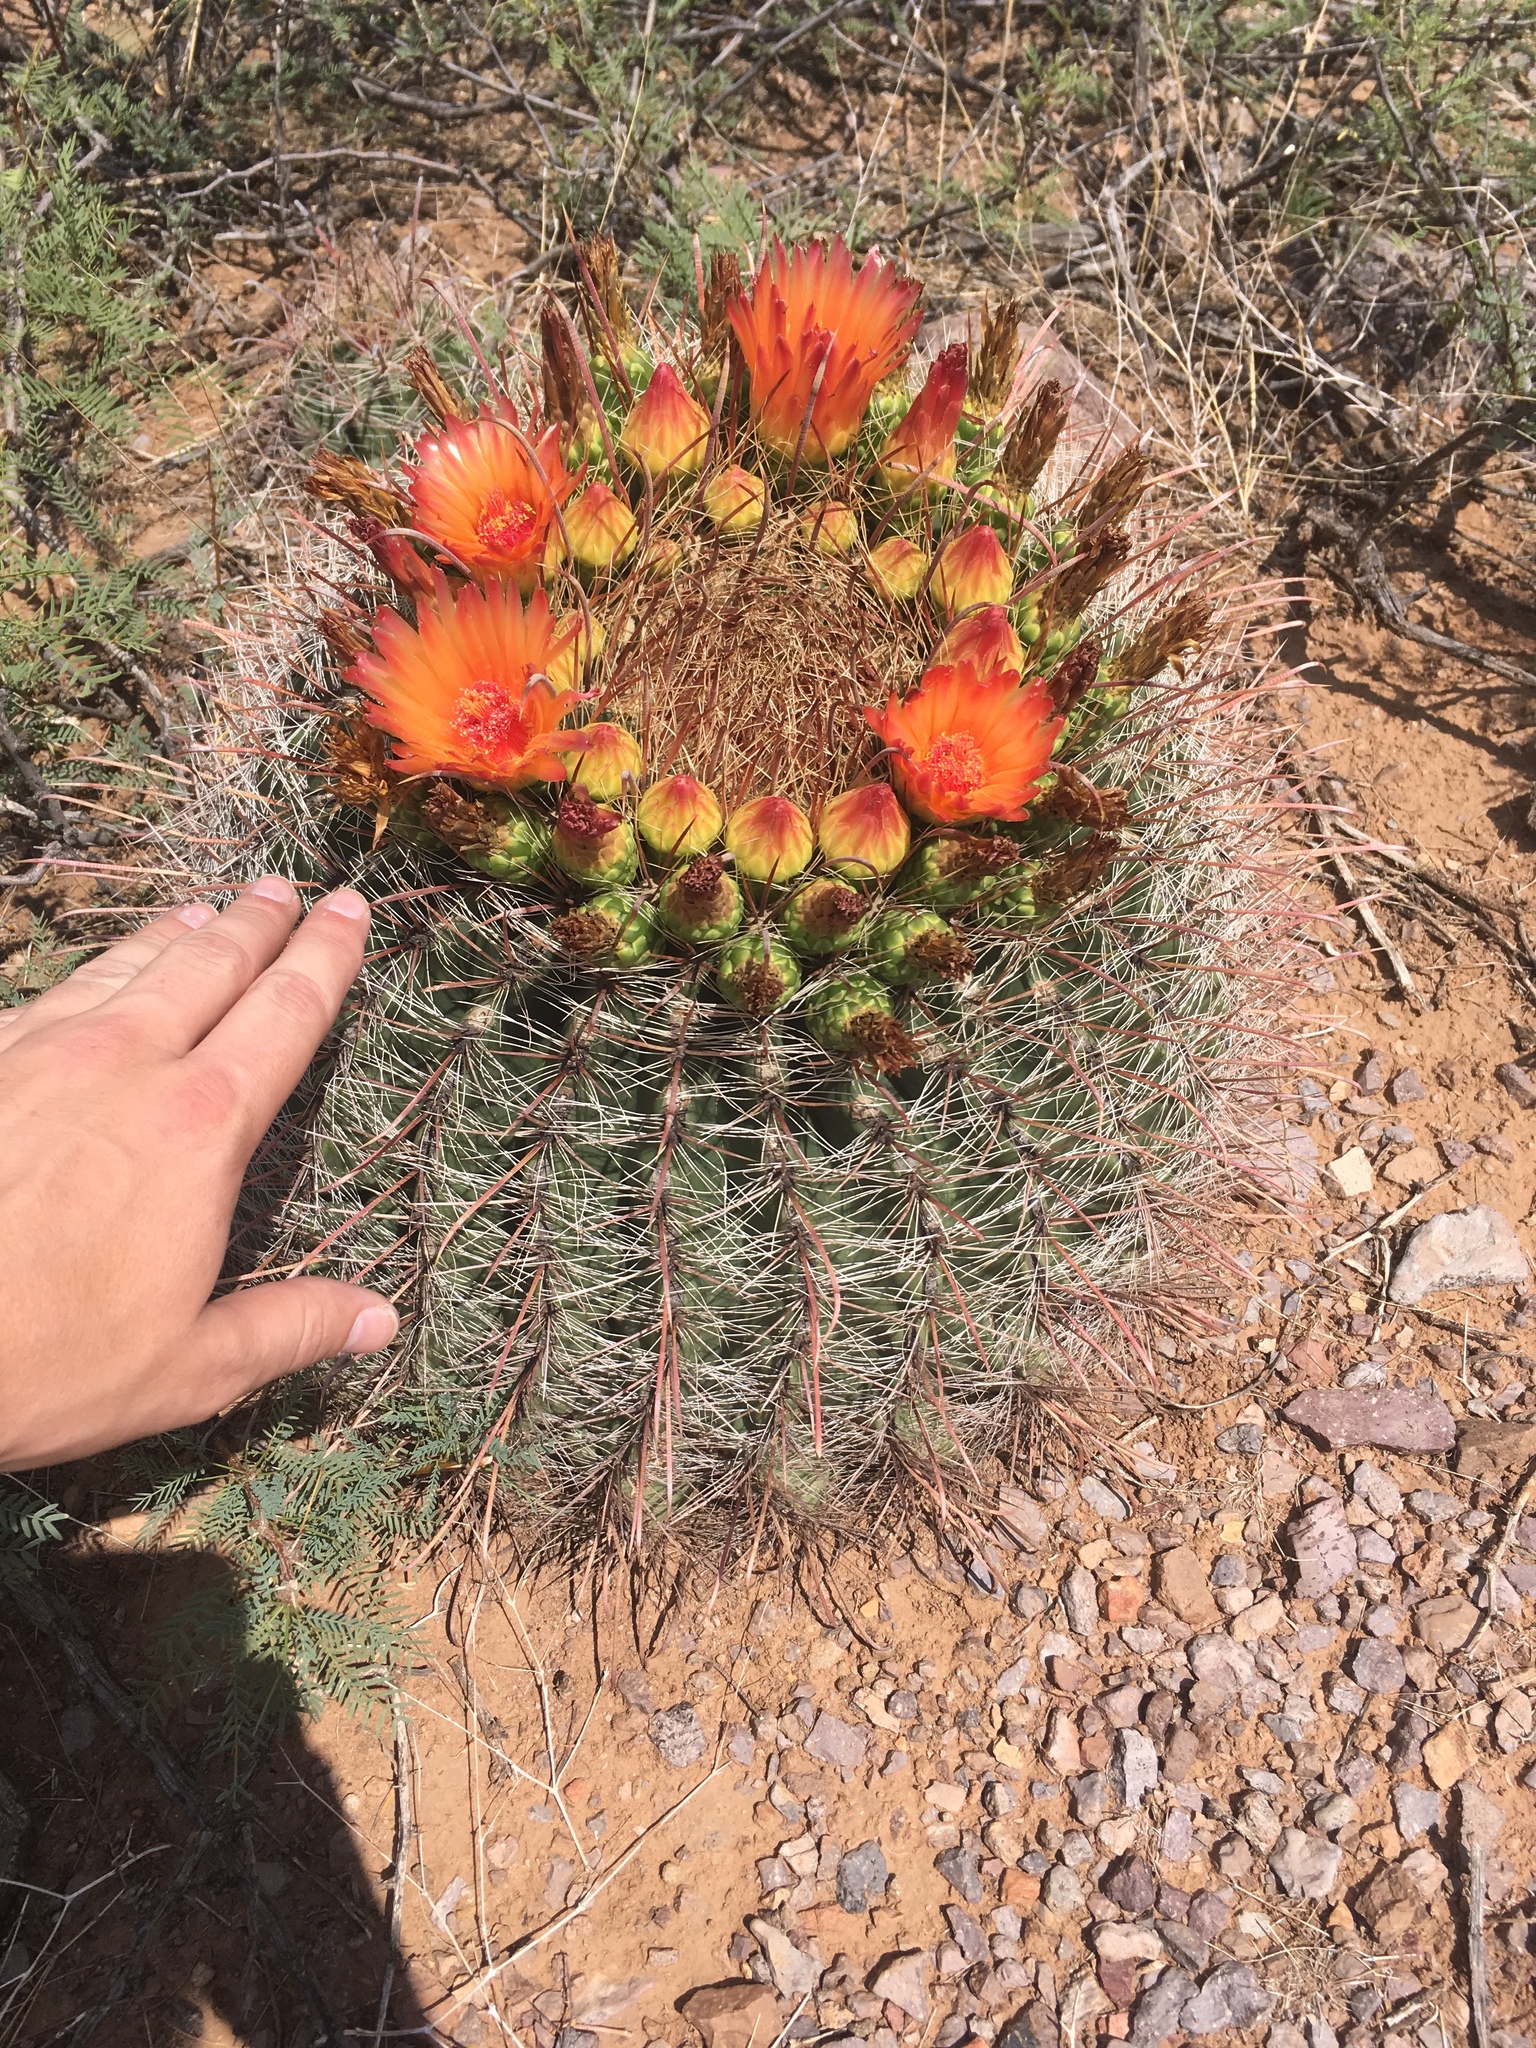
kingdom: Plantae
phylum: Tracheophyta
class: Magnoliopsida
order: Caryophyllales
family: Cactaceae
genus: Ferocactus
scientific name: Ferocactus wislizeni
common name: Candy barrel cactus
